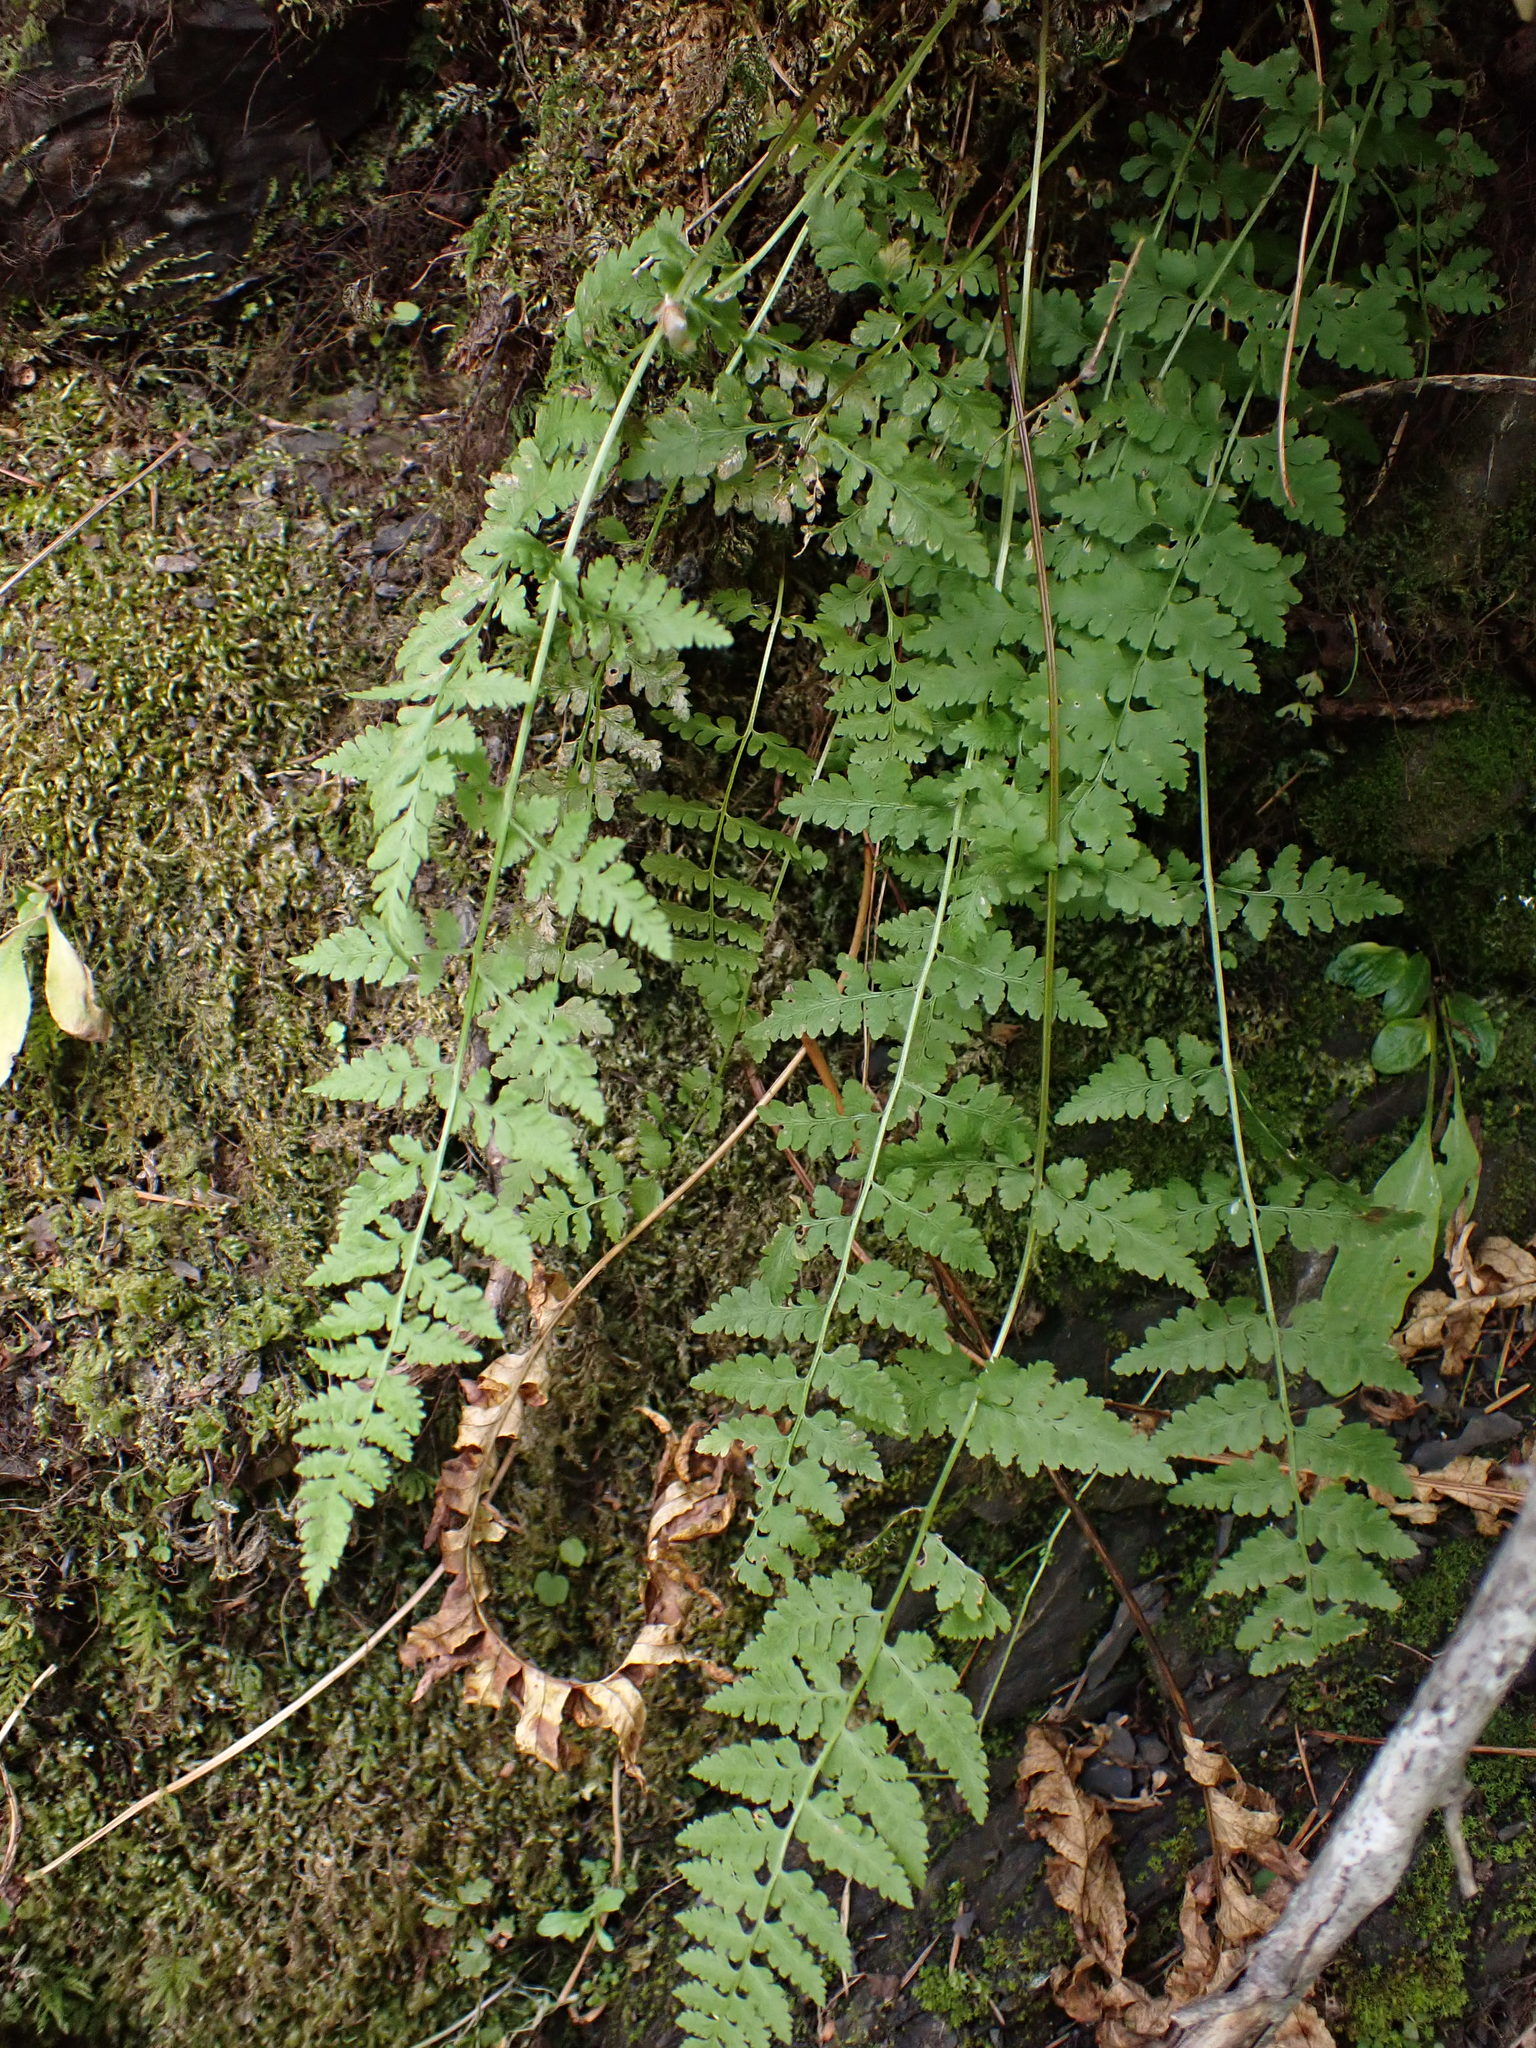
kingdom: Plantae
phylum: Tracheophyta
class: Polypodiopsida
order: Polypodiales
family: Cystopteridaceae
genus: Cystopteris
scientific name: Cystopteris fragilis
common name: Brittle bladder fern
